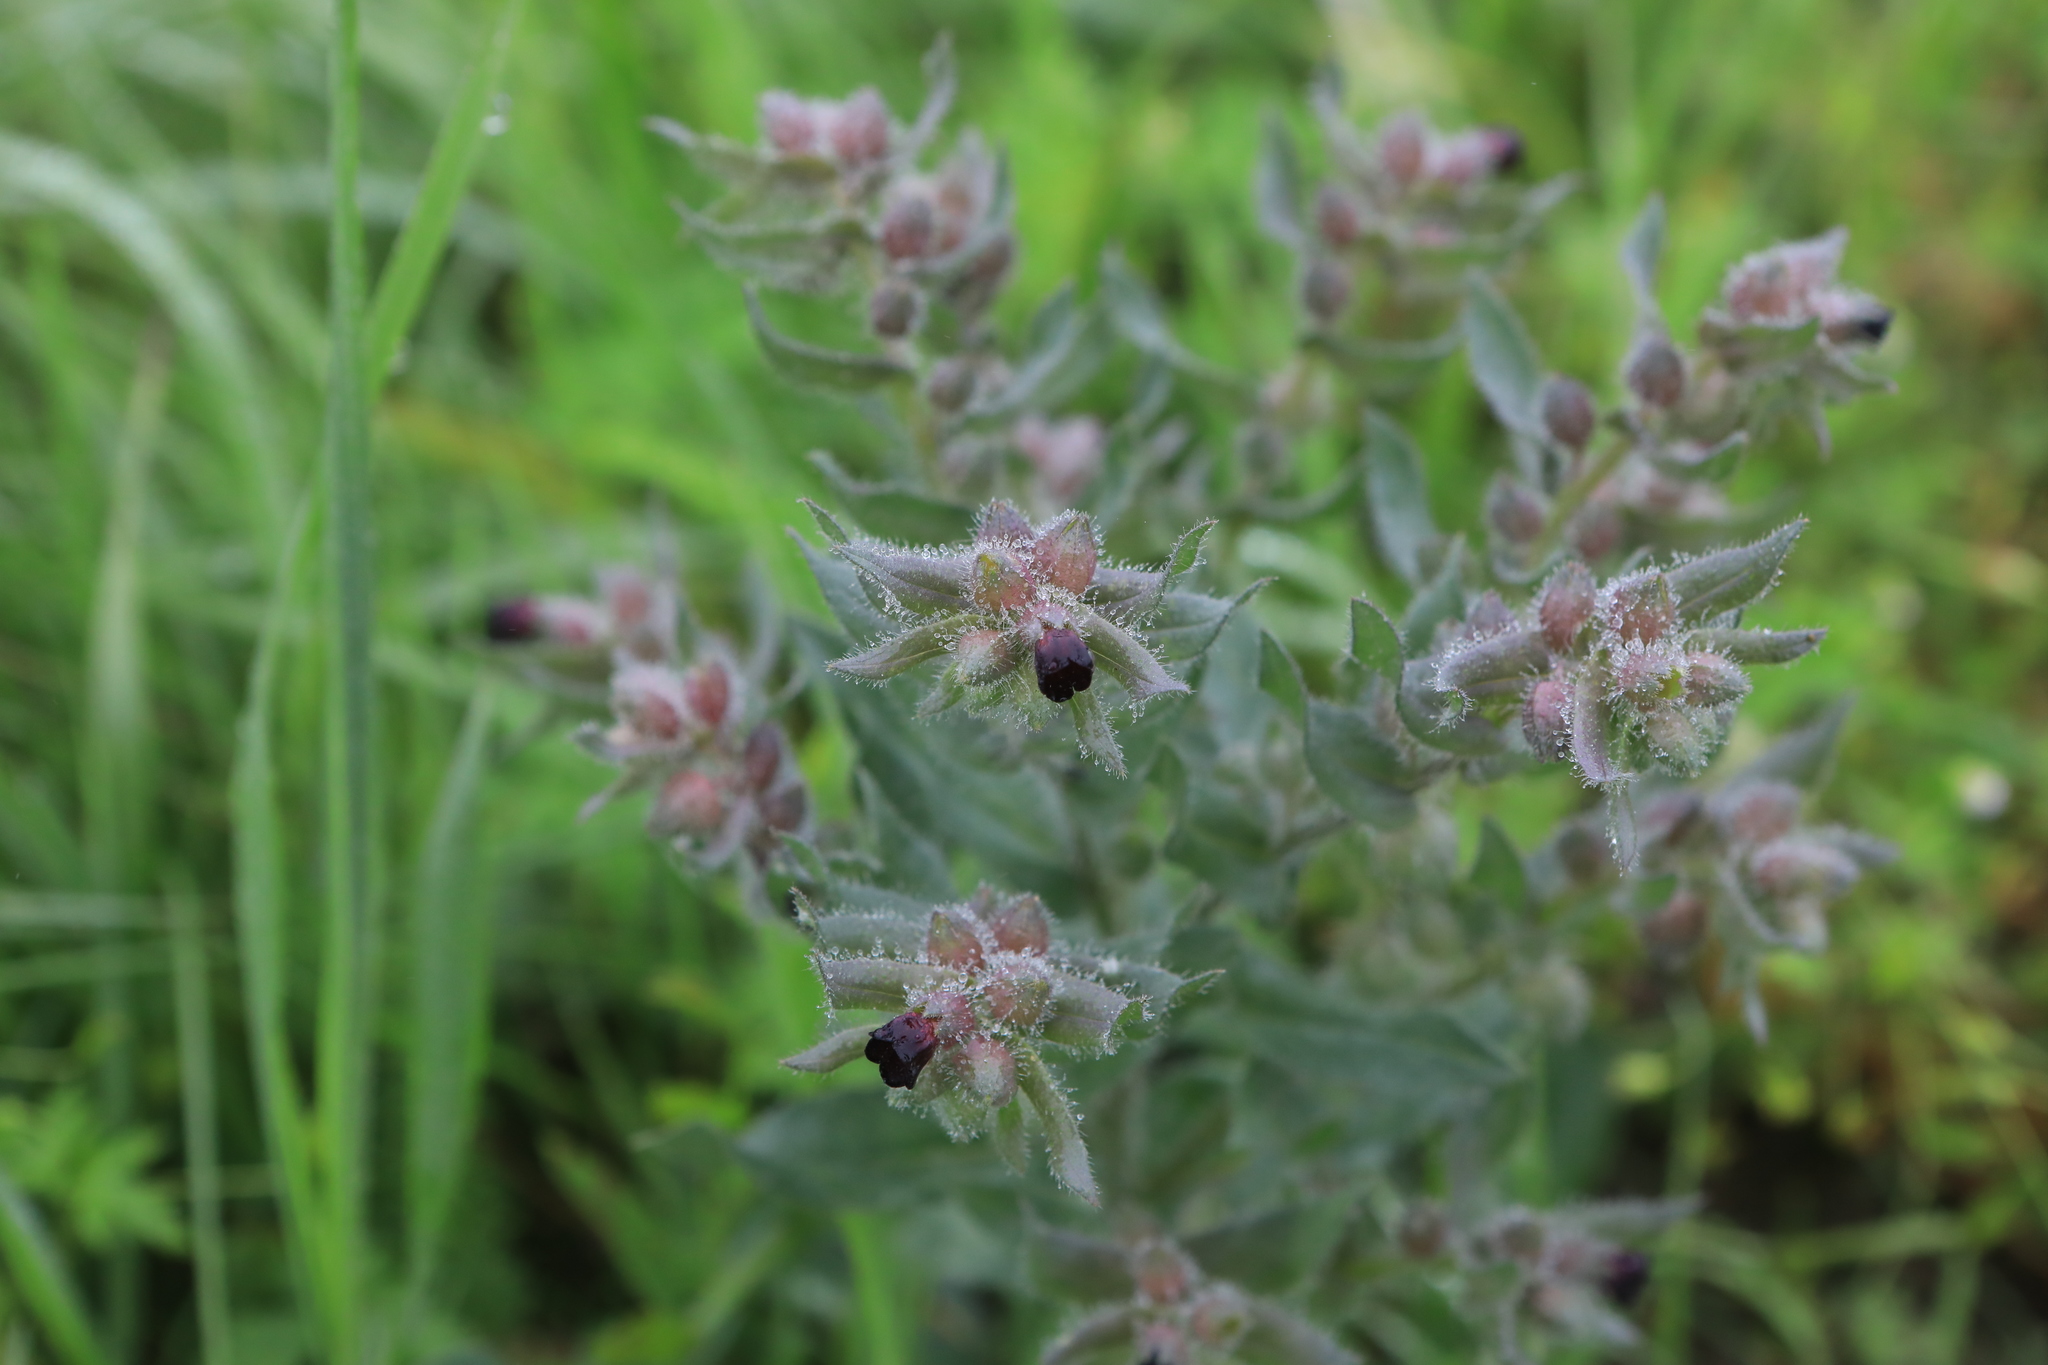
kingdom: Plantae
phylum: Tracheophyta
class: Magnoliopsida
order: Boraginales
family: Boraginaceae
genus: Nonea
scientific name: Nonea pulla
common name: Brown nonea
